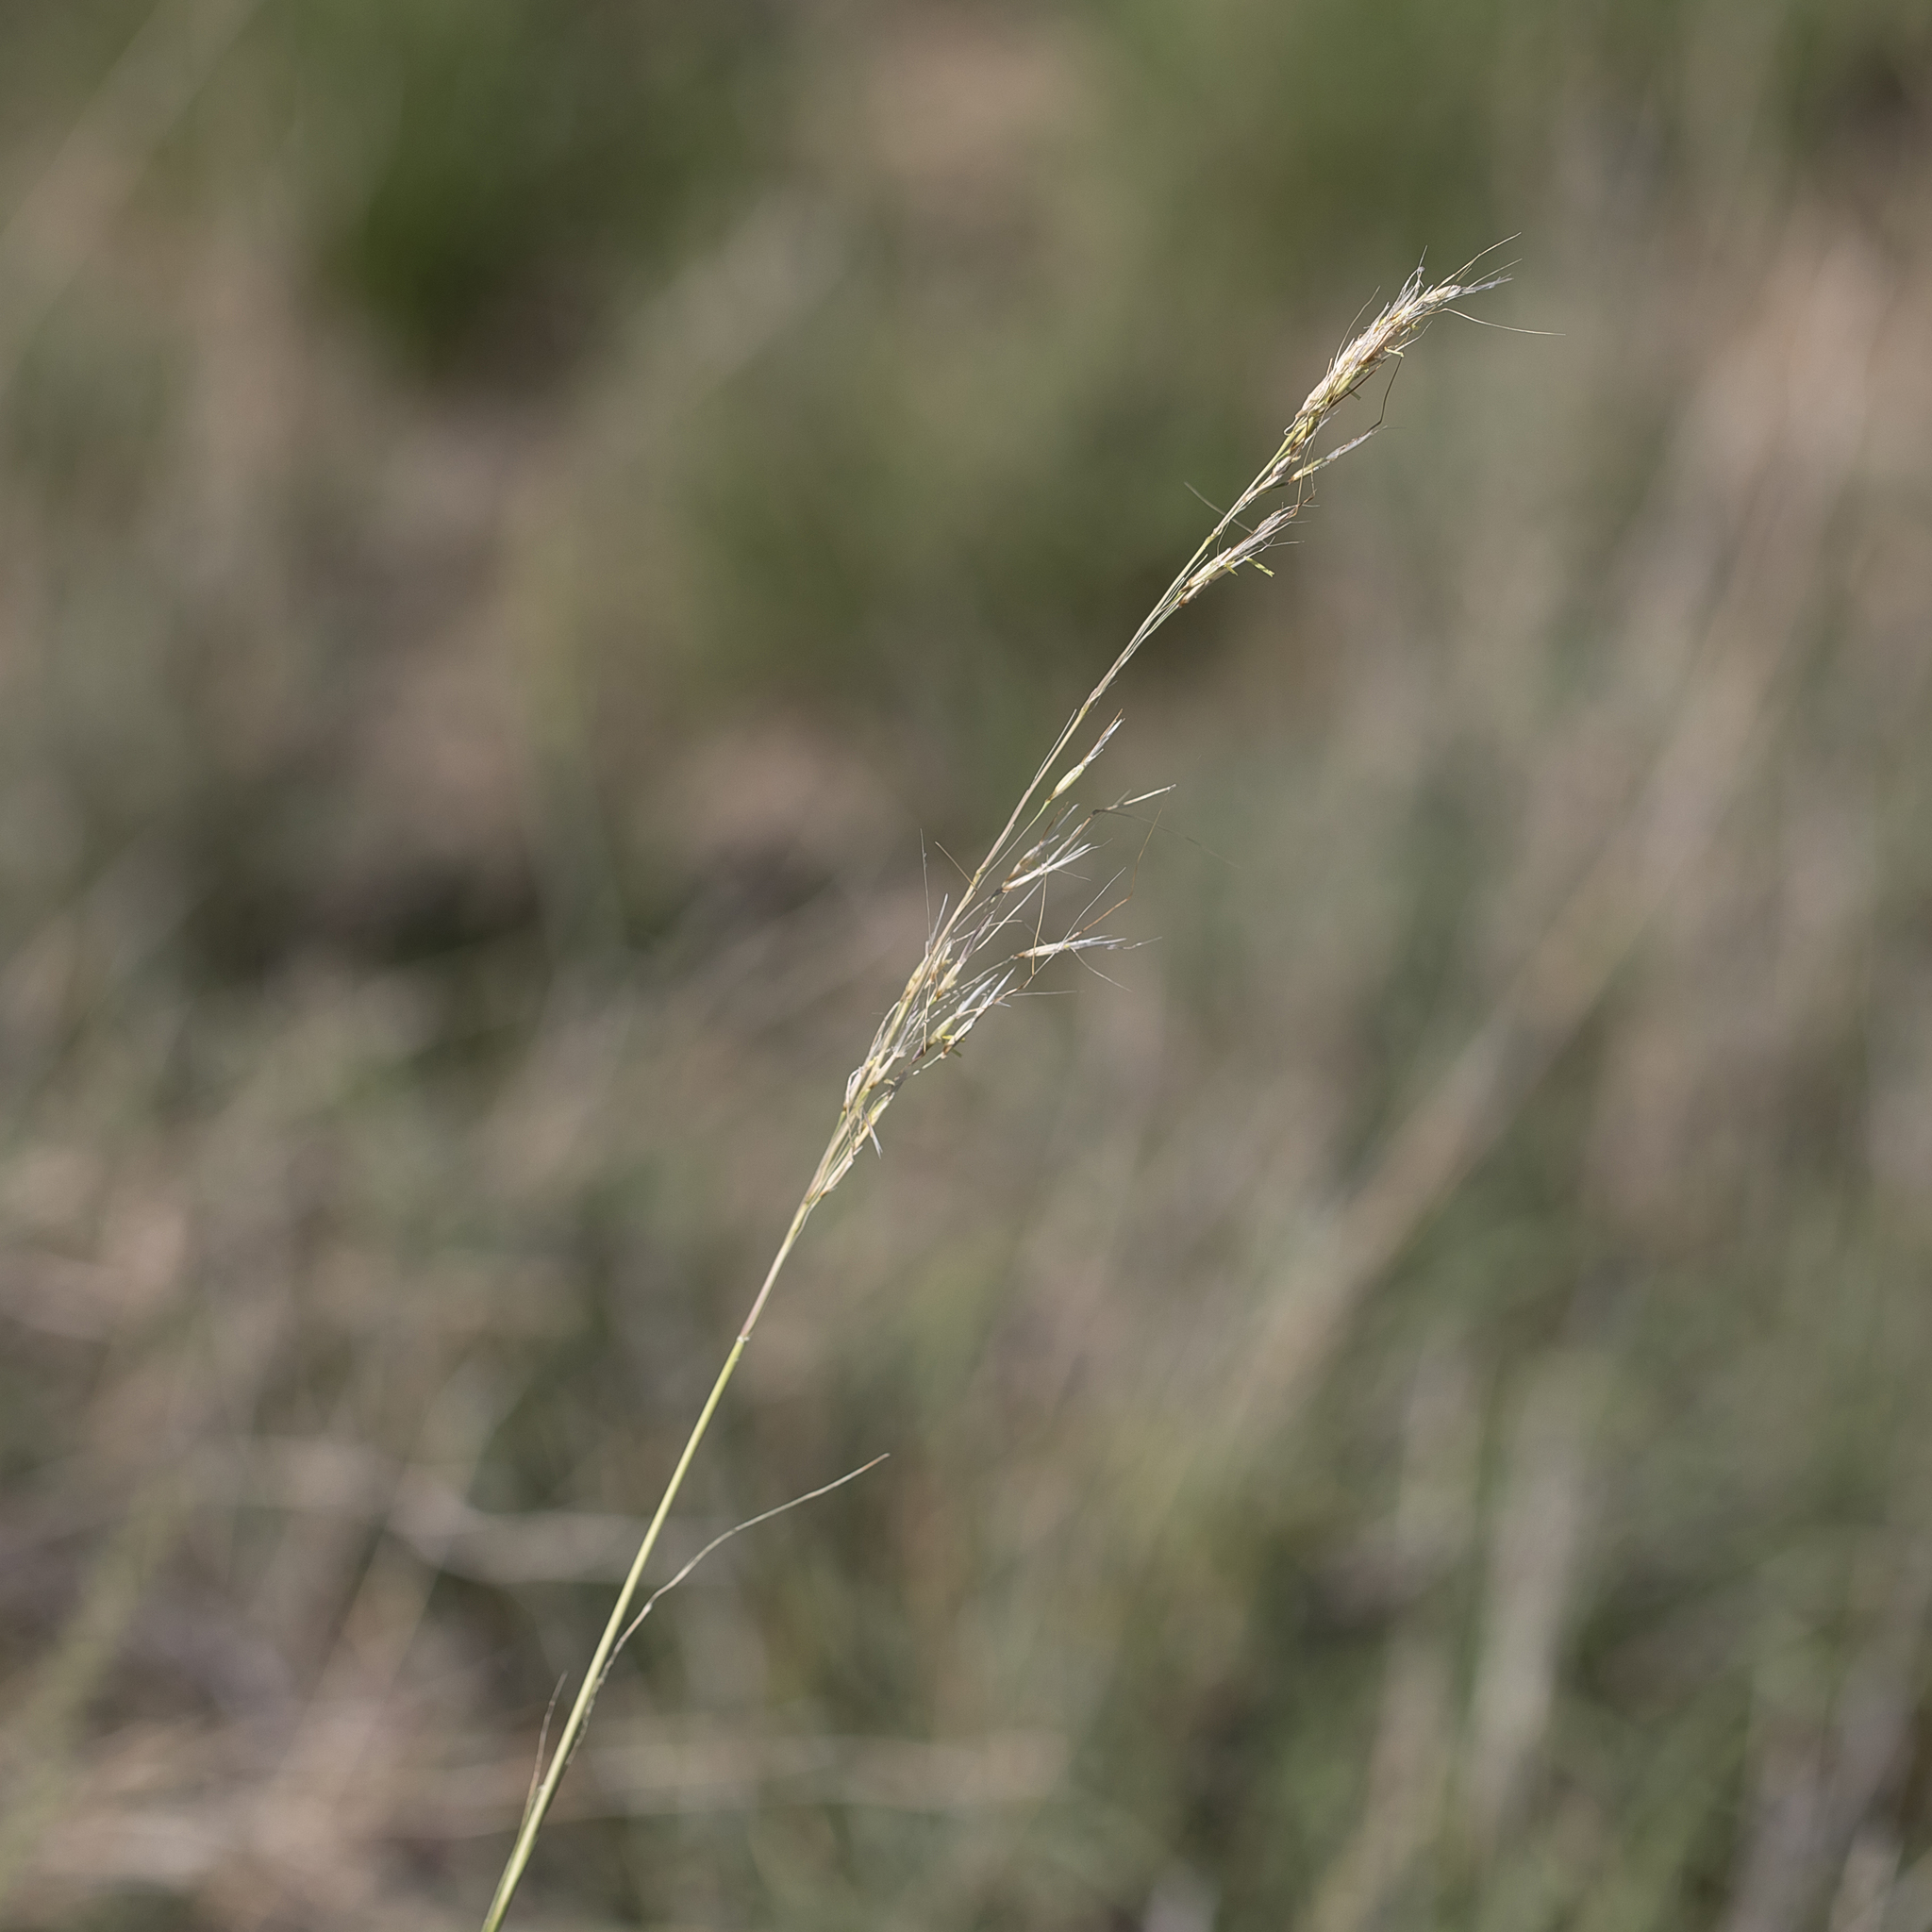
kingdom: Plantae
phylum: Tracheophyta
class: Liliopsida
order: Poales
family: Poaceae
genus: Chrysopogon
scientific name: Chrysopogon fallax
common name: Golden beard grass
